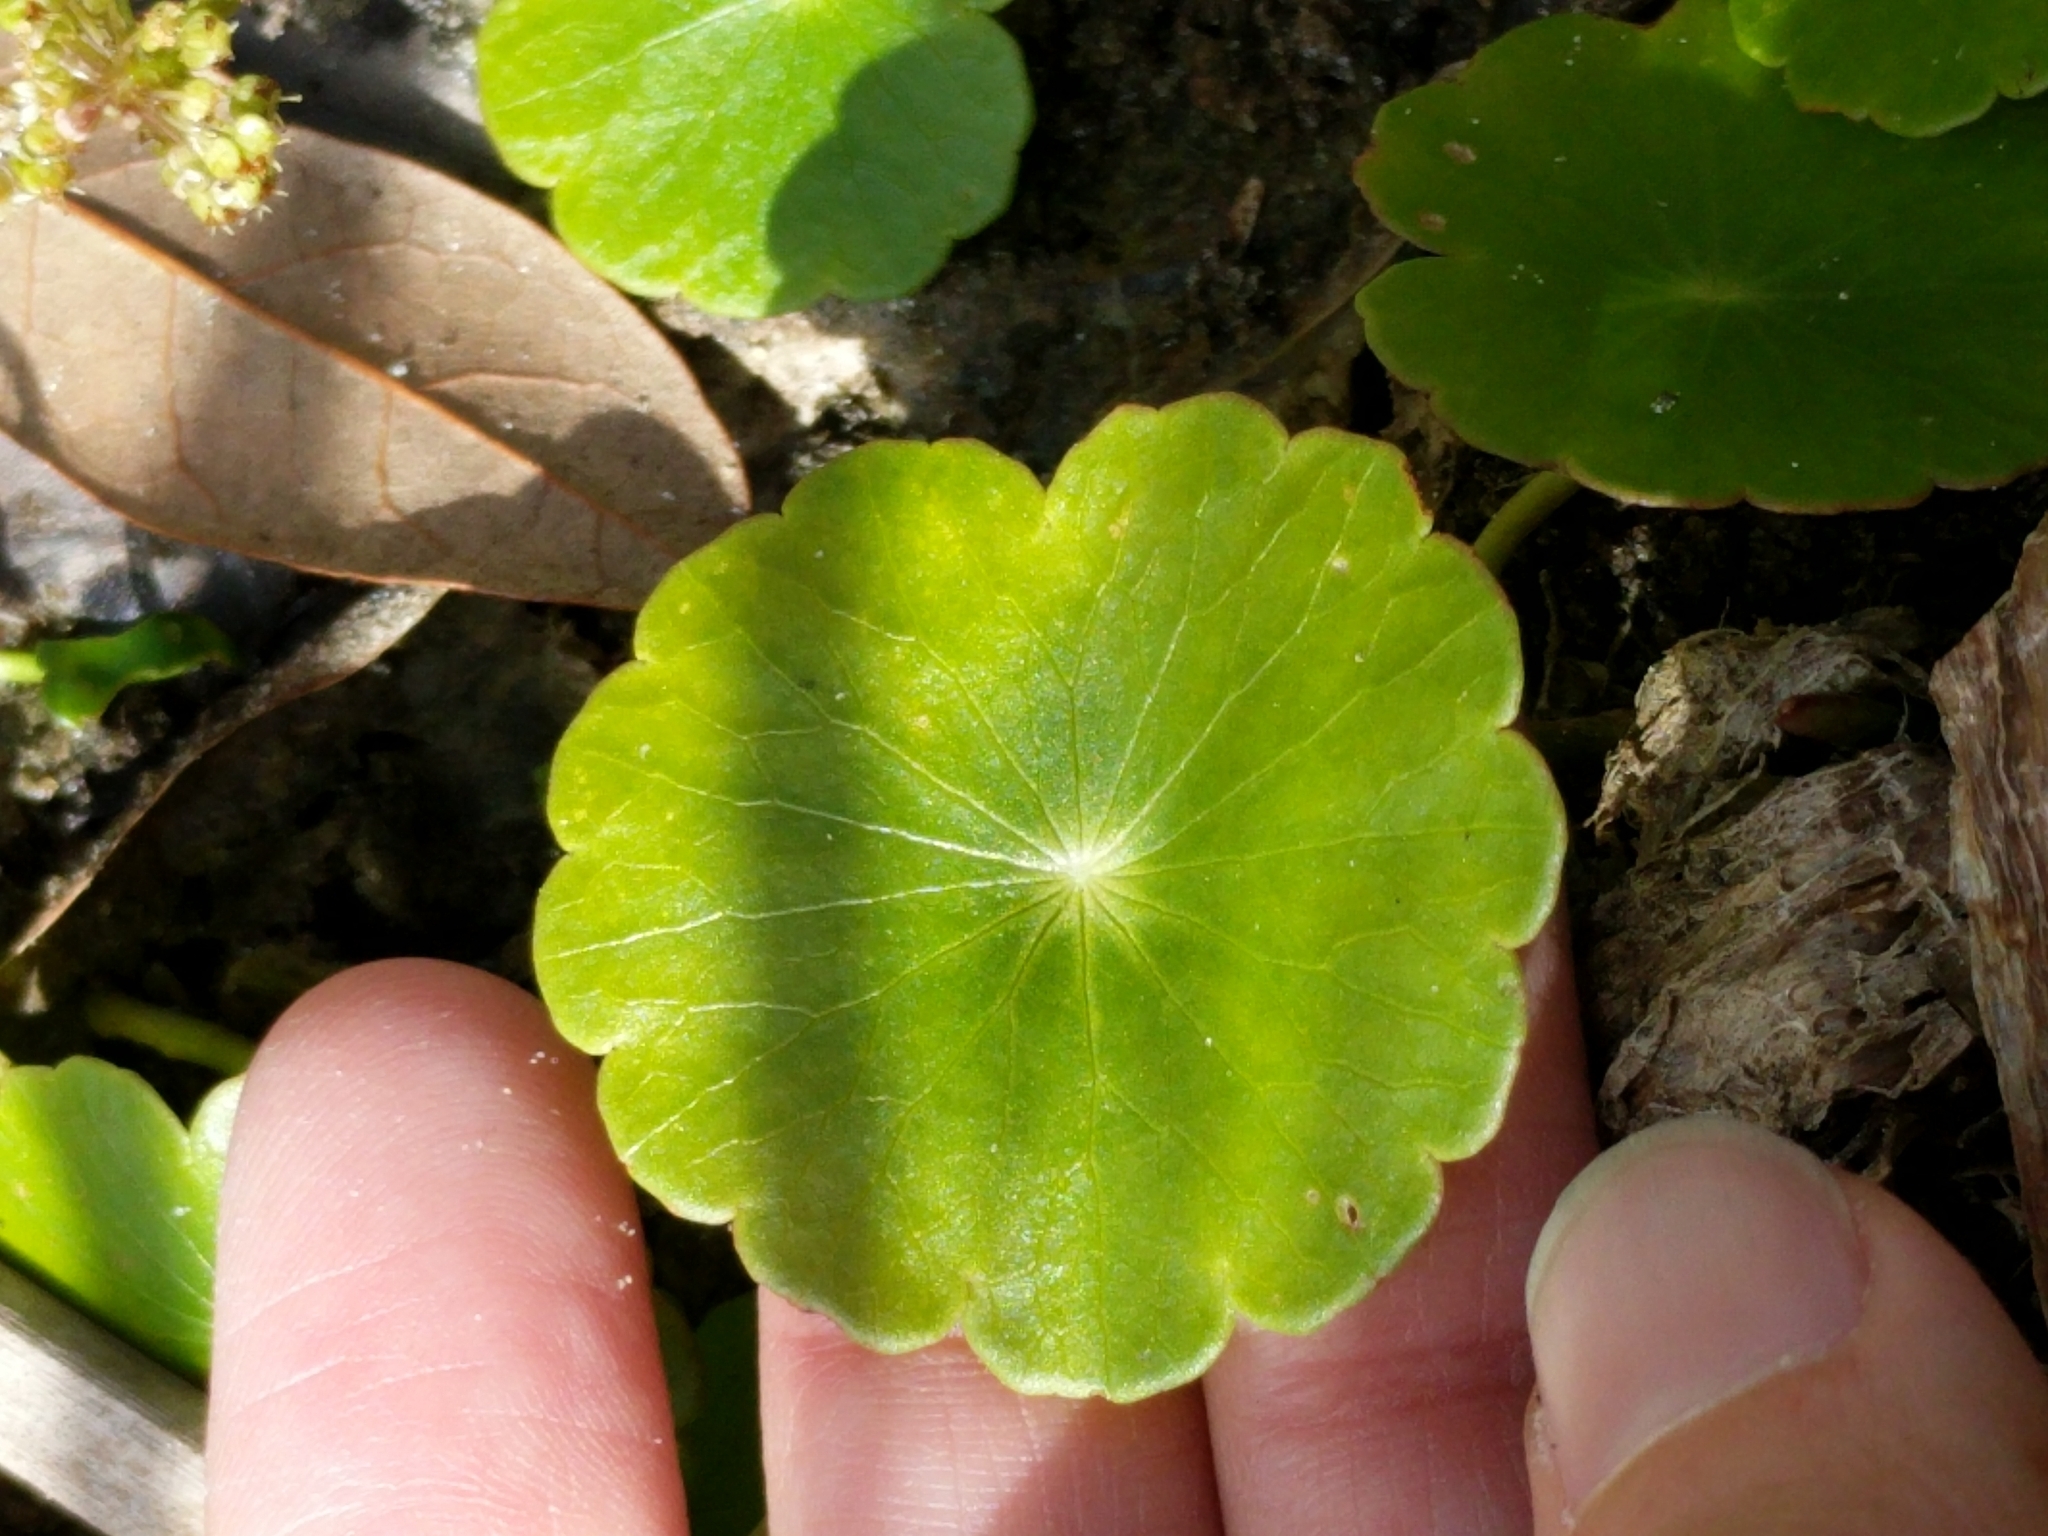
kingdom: Plantae
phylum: Tracheophyta
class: Magnoliopsida
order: Apiales
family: Araliaceae
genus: Hydrocotyle
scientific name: Hydrocotyle umbellata
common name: Water pennywort
